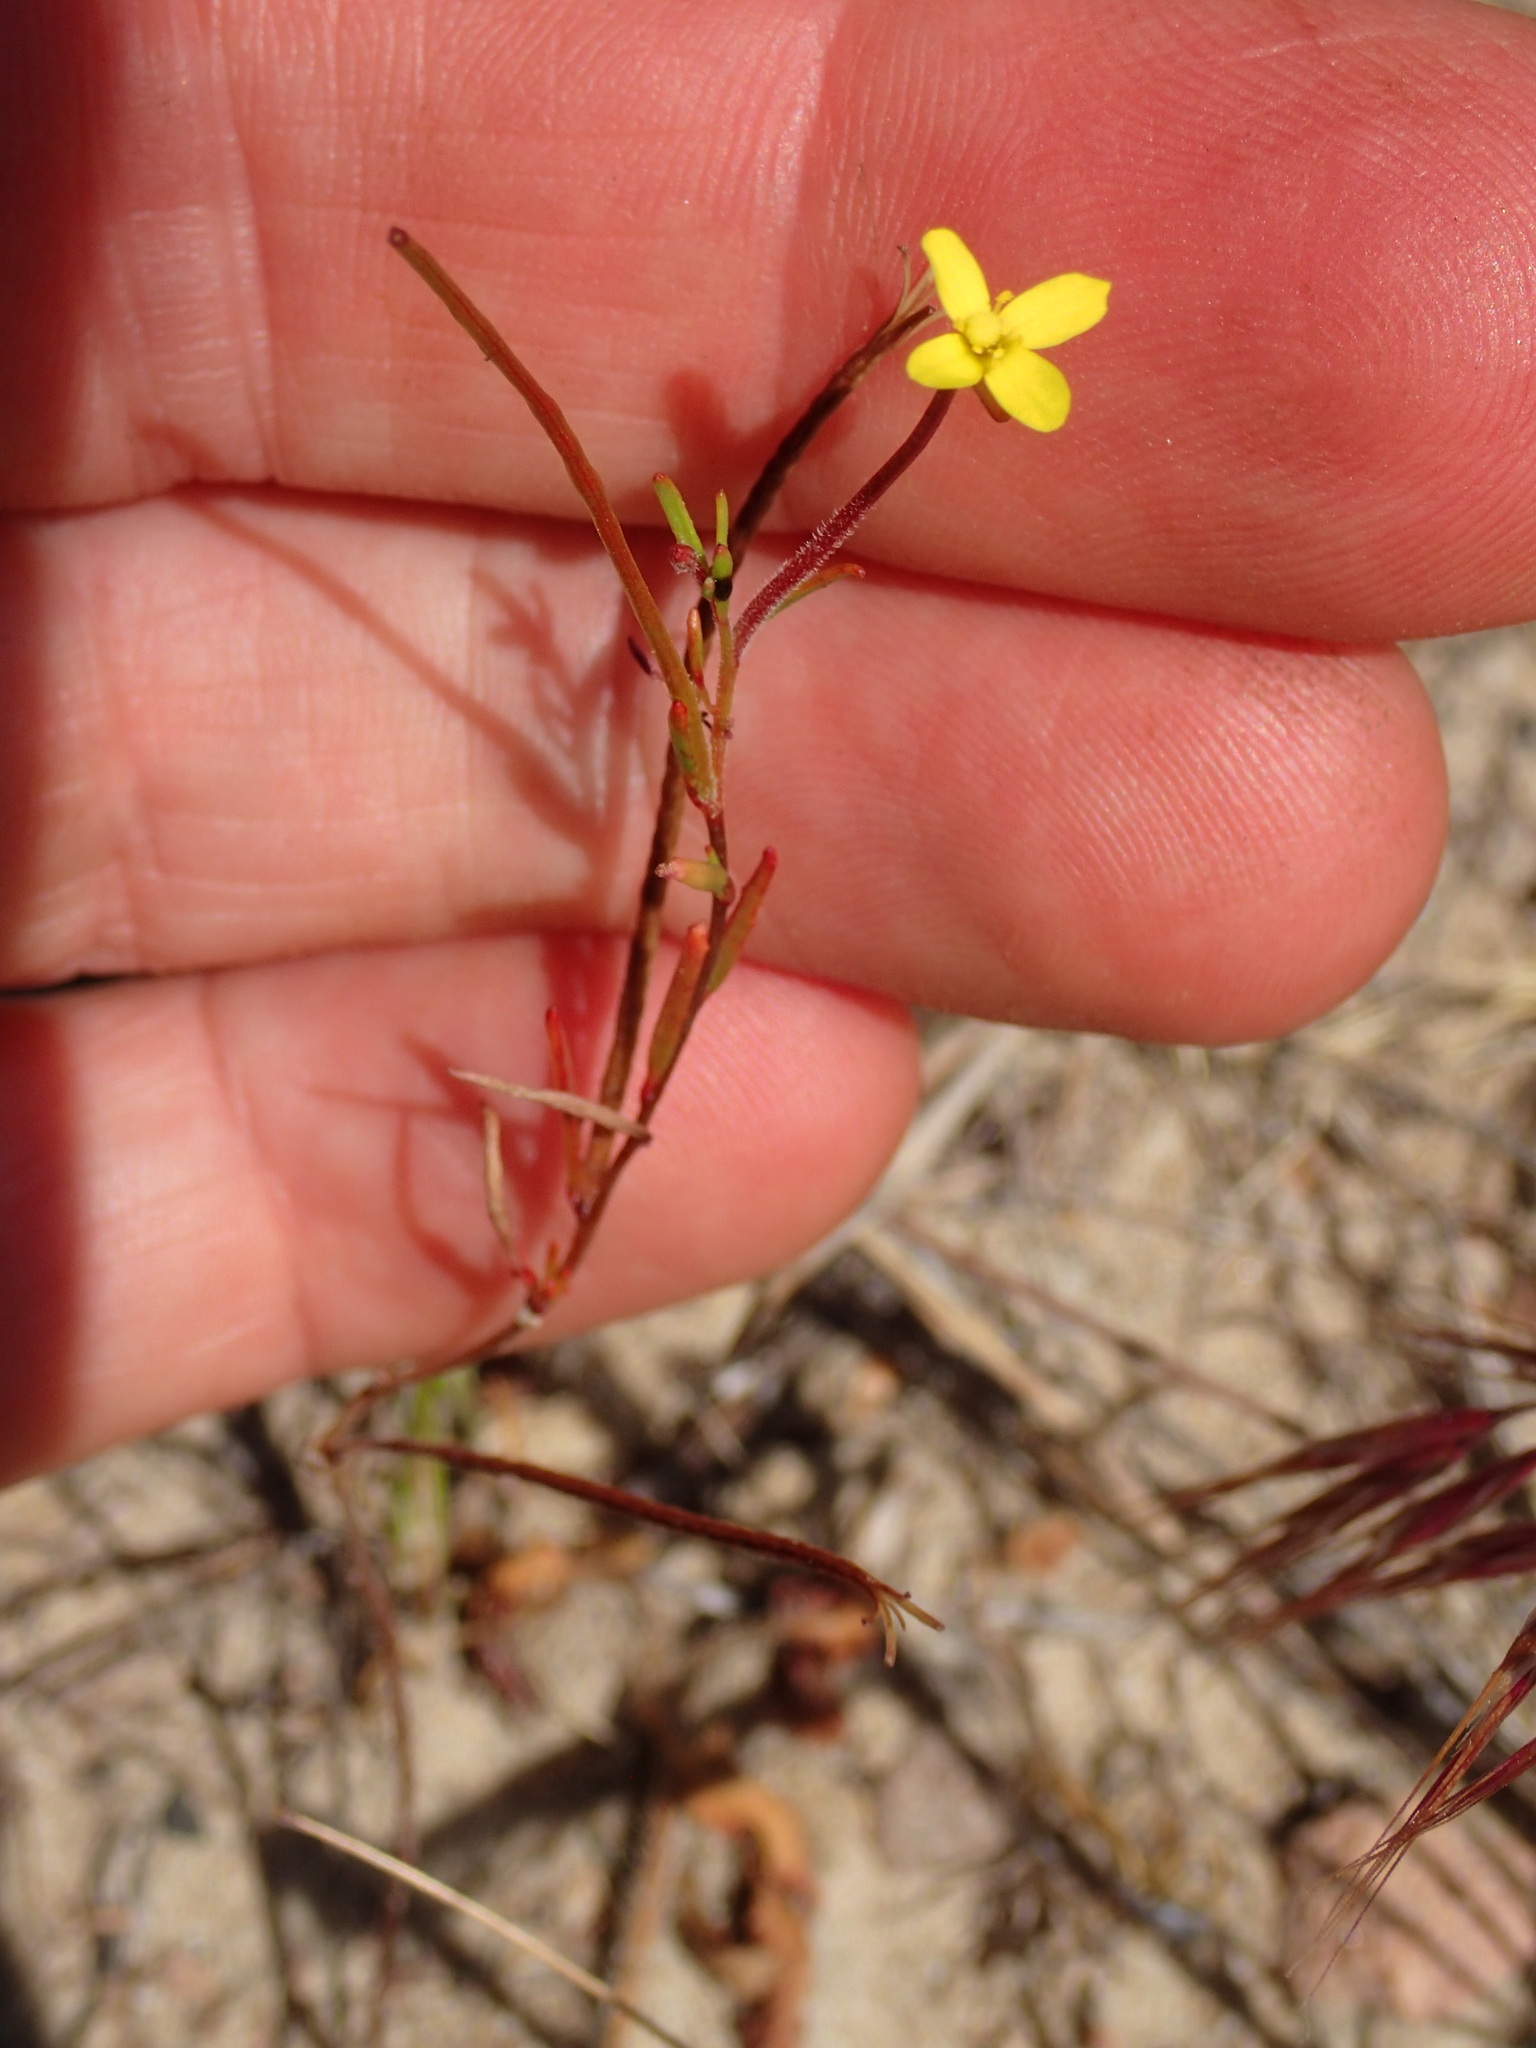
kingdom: Plantae
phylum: Tracheophyta
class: Magnoliopsida
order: Myrtales
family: Onagraceae
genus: Camissonia
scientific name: Camissonia strigulosa
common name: Contorted-primrose
